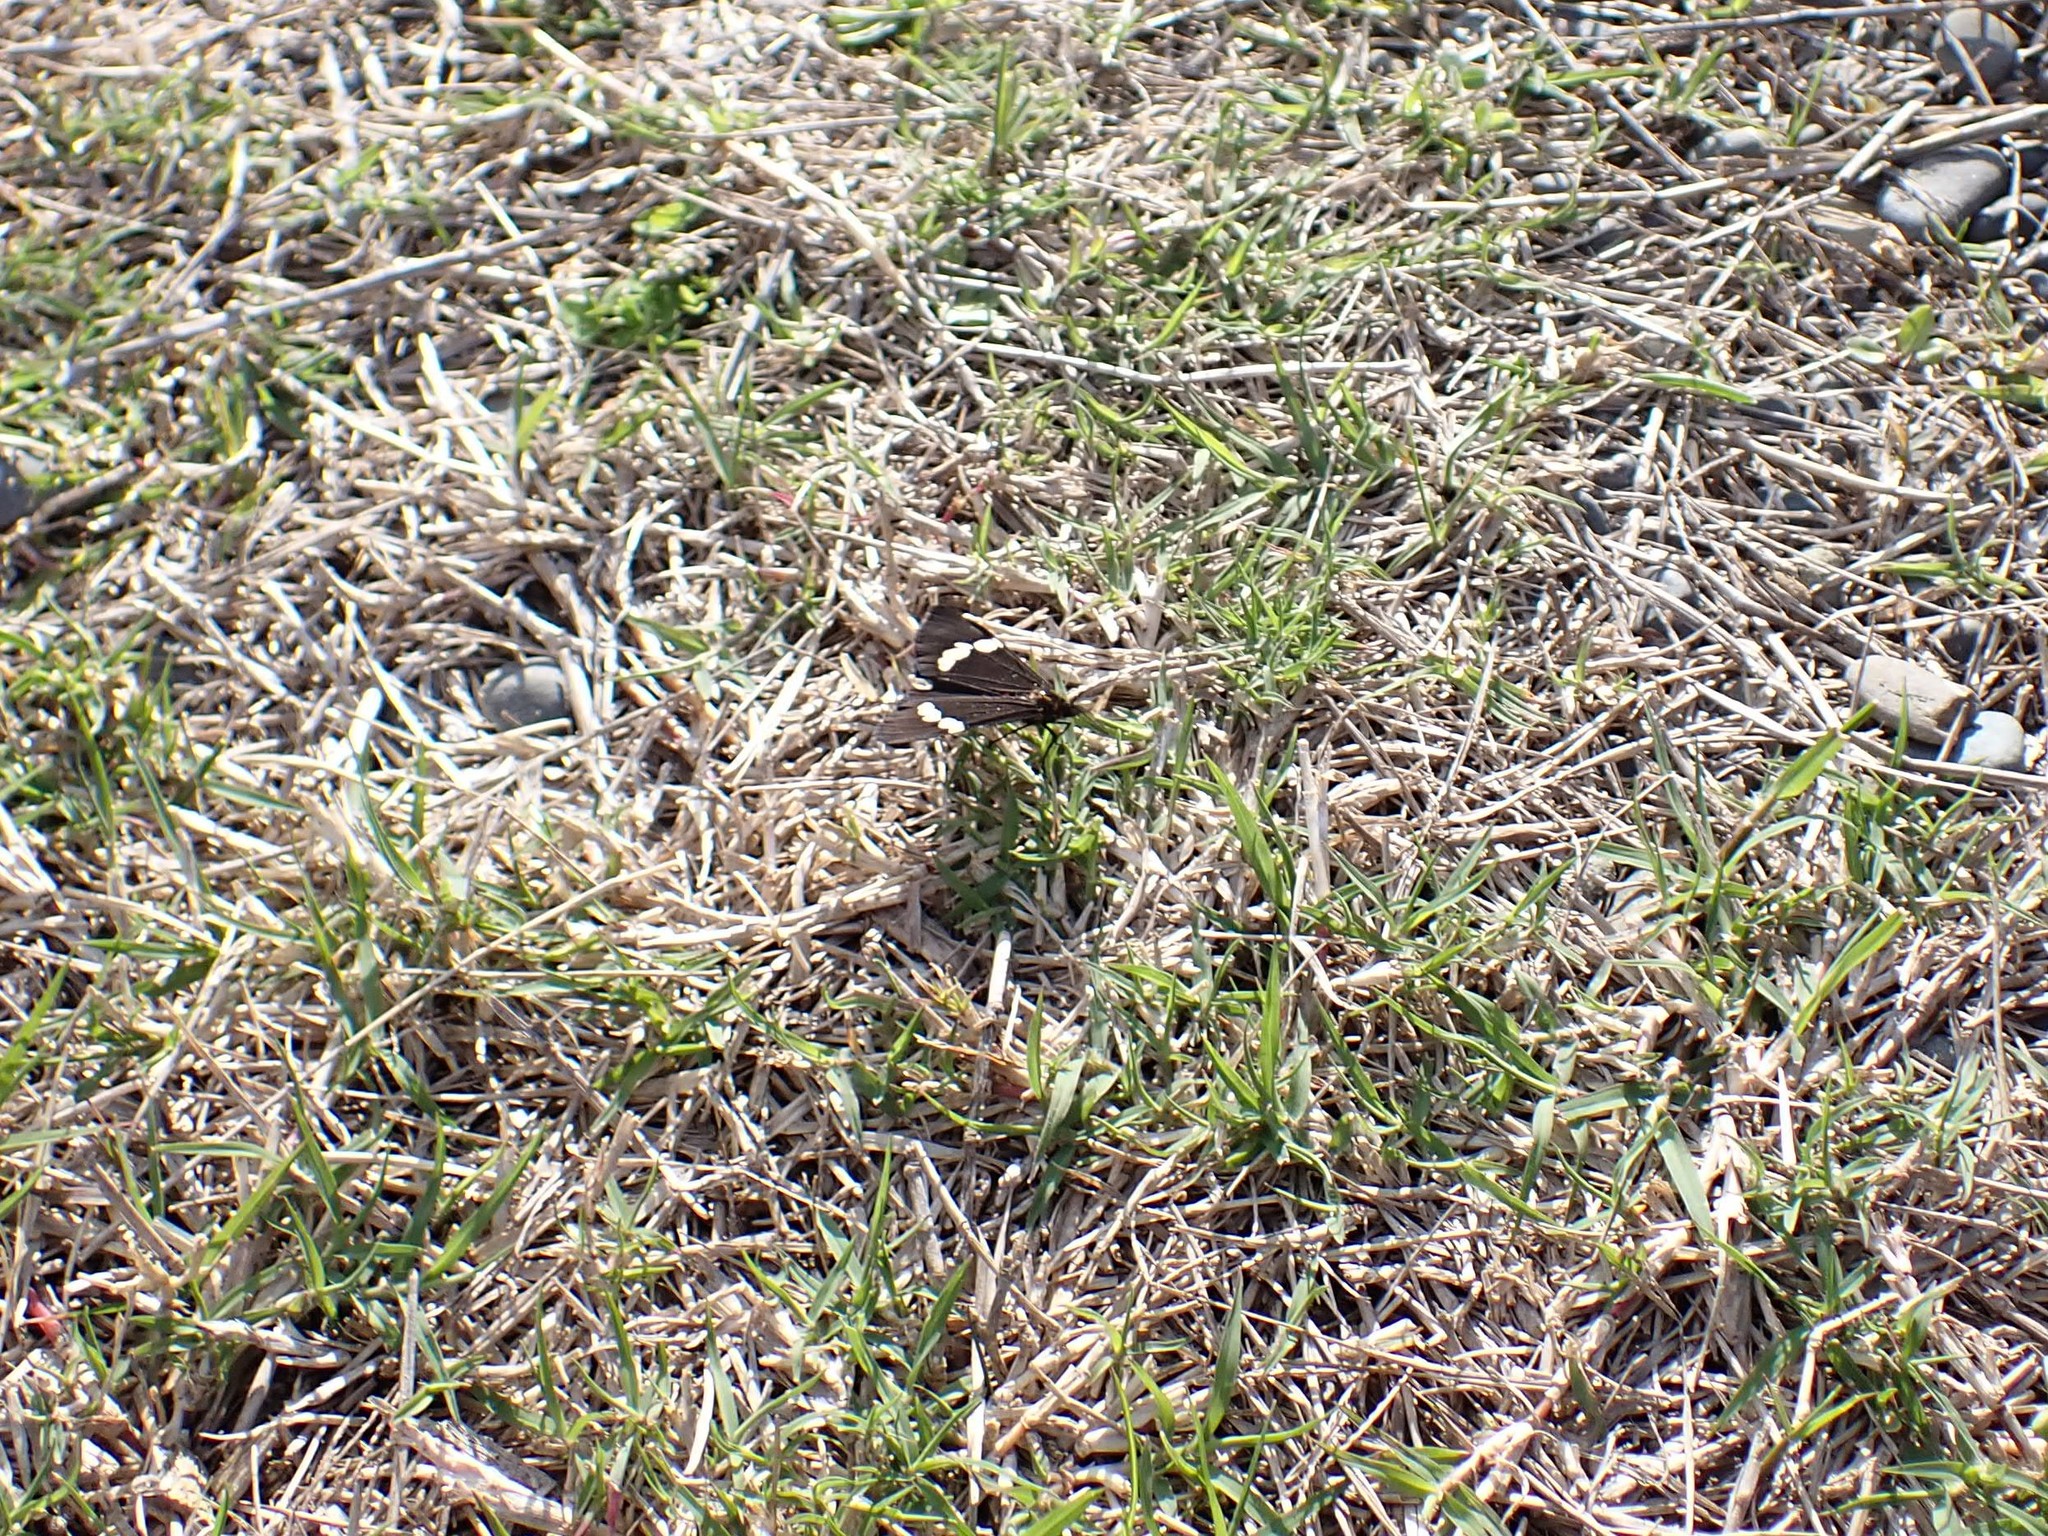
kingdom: Animalia
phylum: Arthropoda
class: Insecta
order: Lepidoptera
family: Erebidae
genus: Nyctemera
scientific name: Nyctemera annulatum
